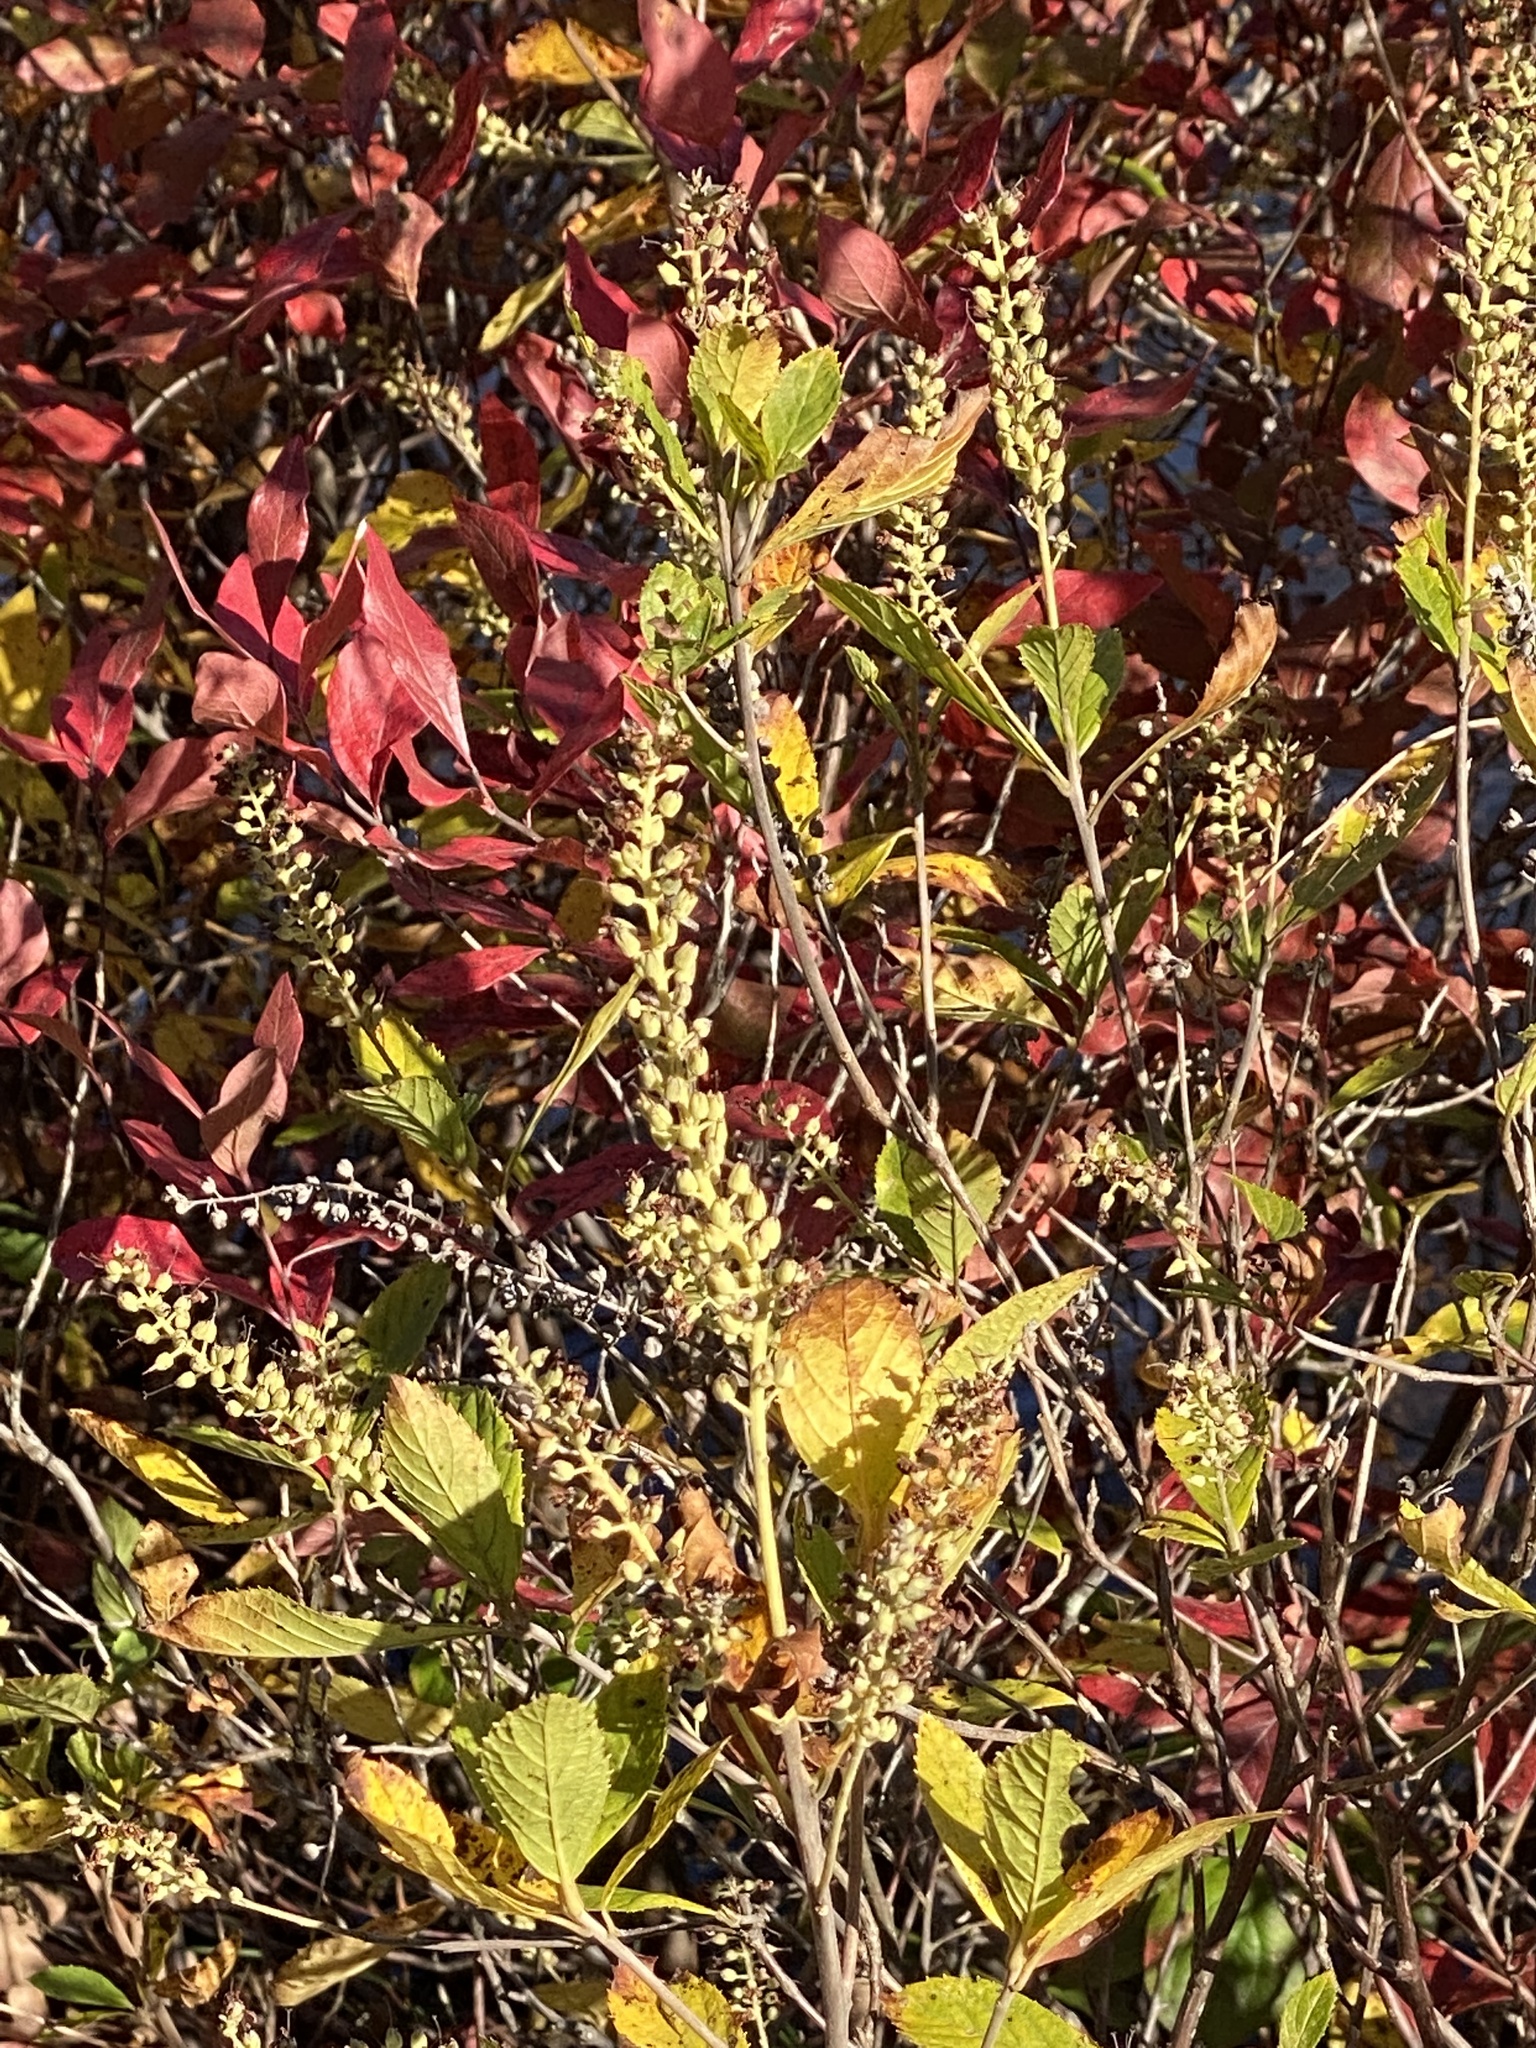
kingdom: Plantae
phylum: Tracheophyta
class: Magnoliopsida
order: Ericales
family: Clethraceae
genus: Clethra
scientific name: Clethra alnifolia
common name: Sweet pepperbush
